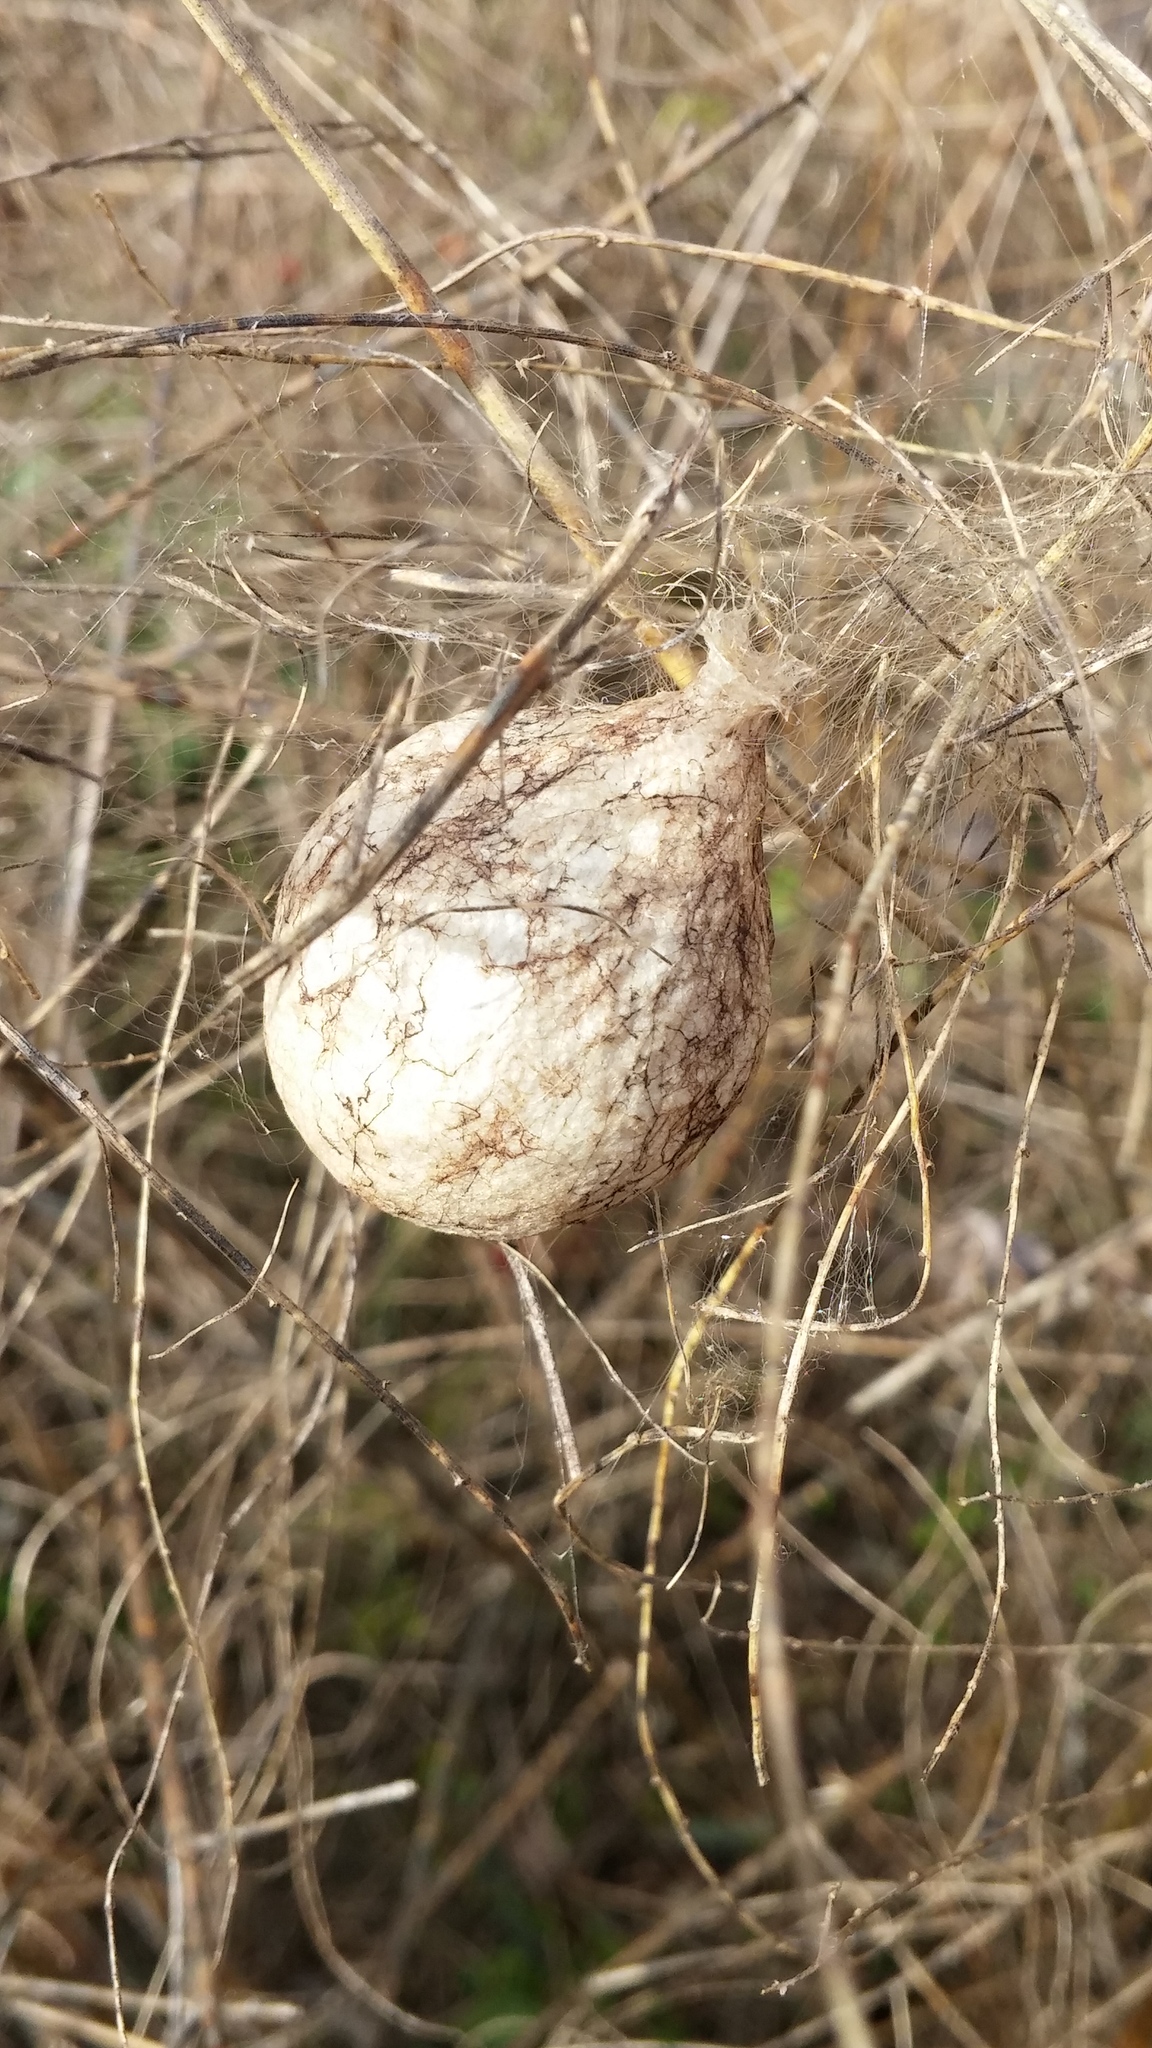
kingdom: Animalia
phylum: Arthropoda
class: Arachnida
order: Araneae
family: Araneidae
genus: Argiope
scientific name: Argiope aurantia
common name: Orb weavers
